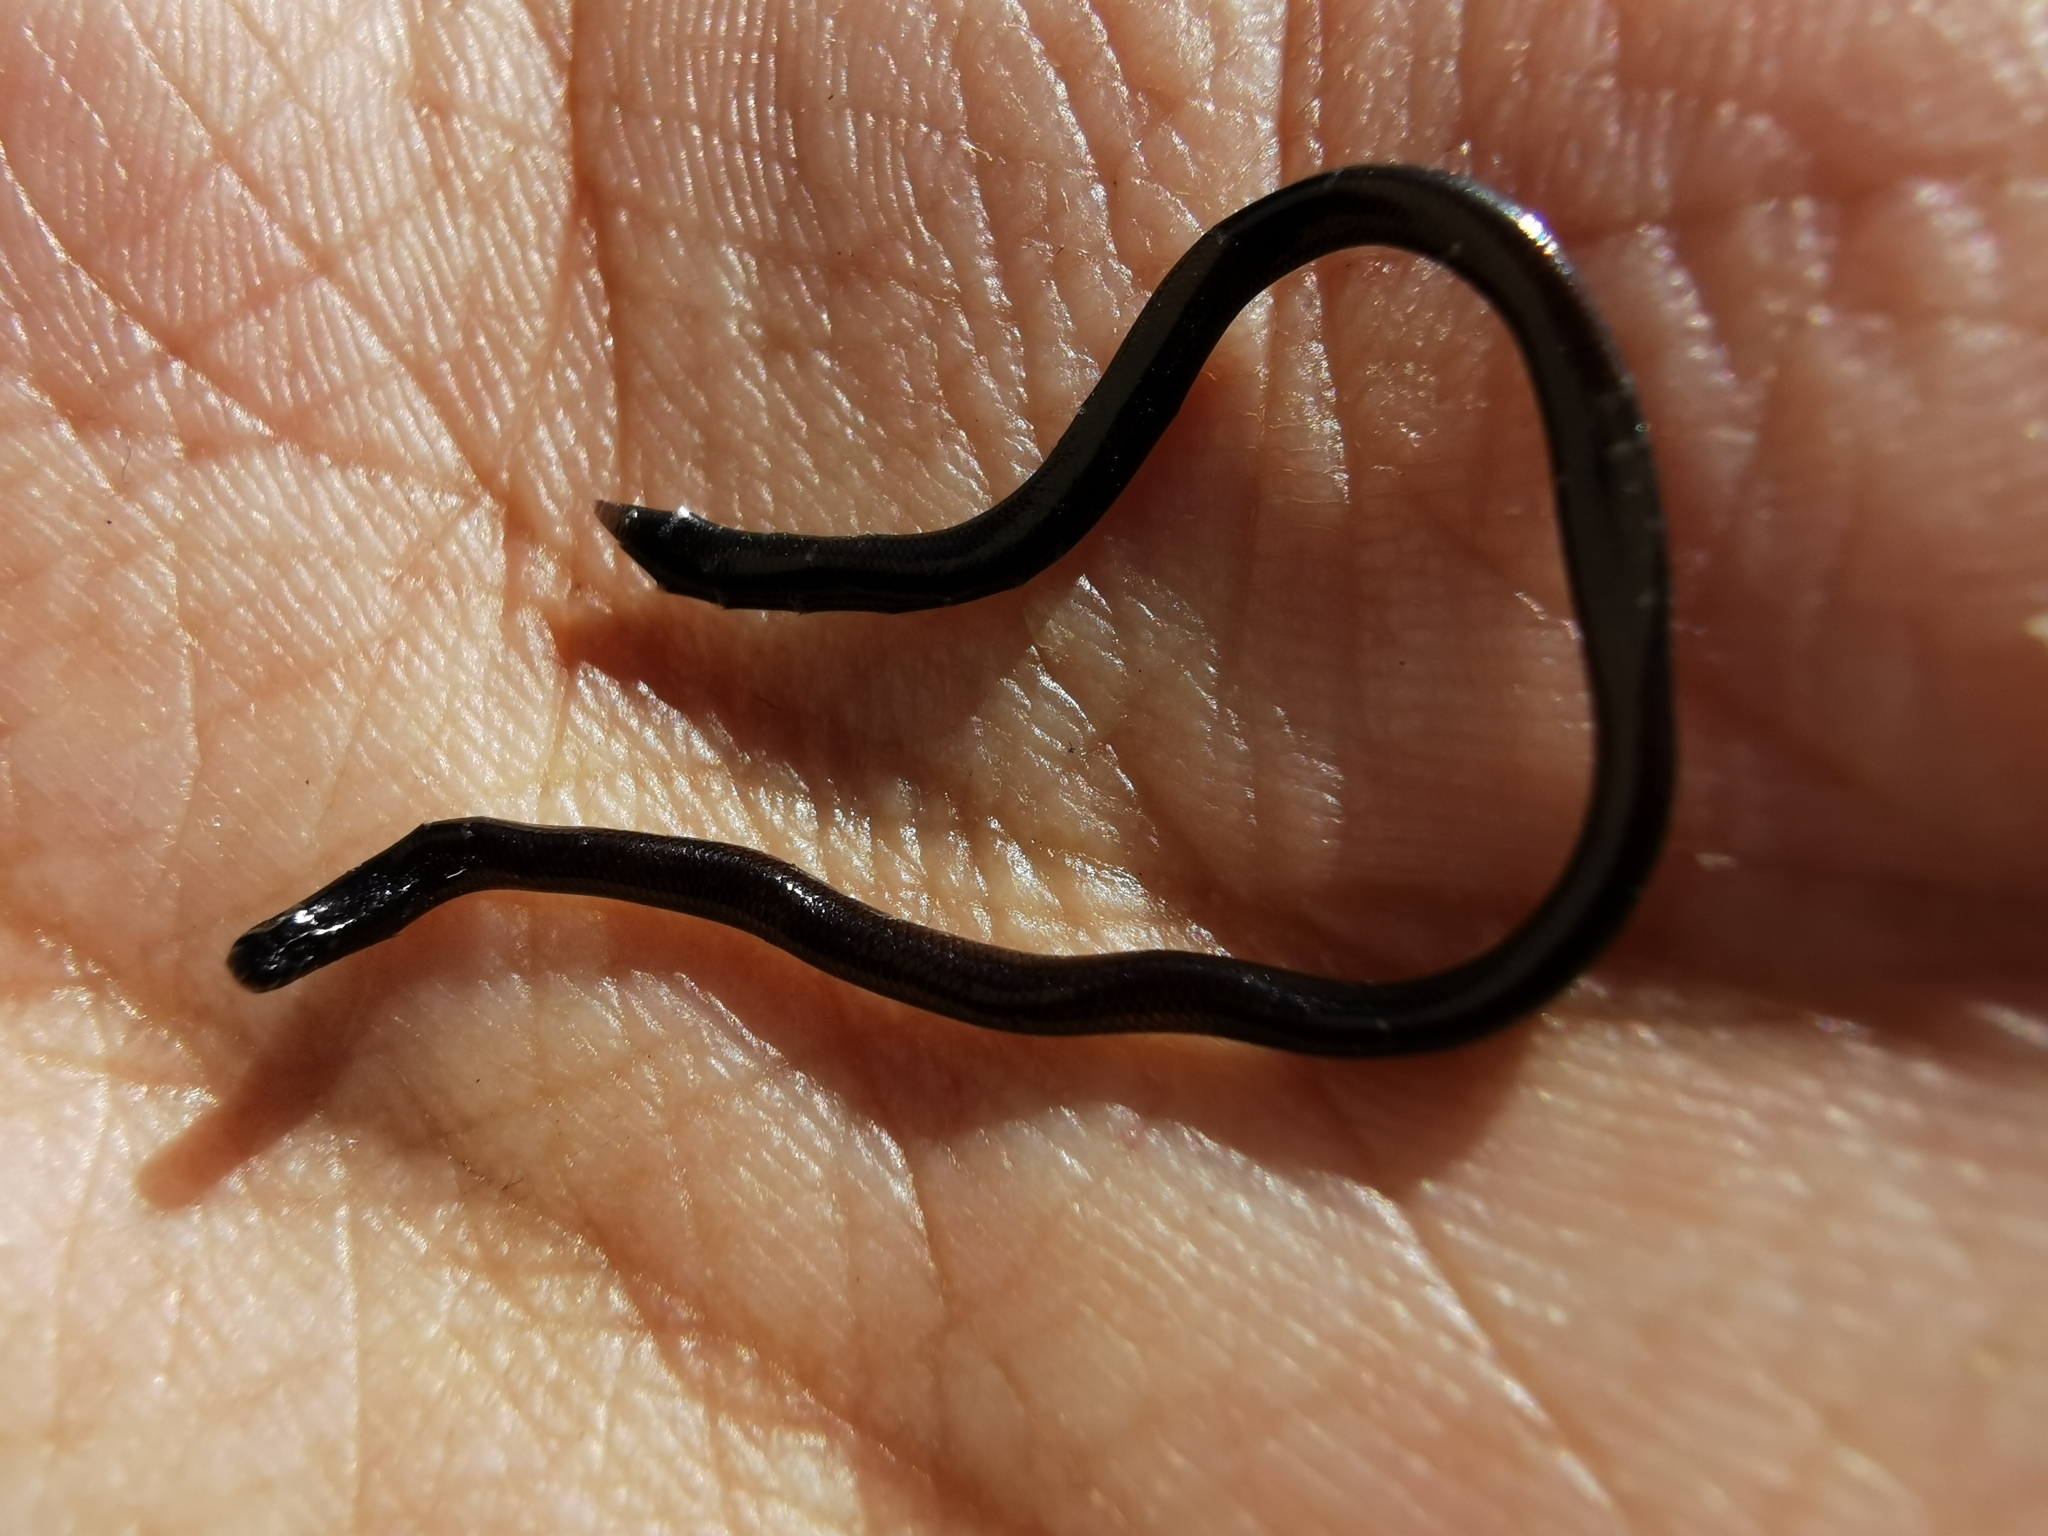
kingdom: Animalia
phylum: Chordata
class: Squamata
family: Typhlopidae
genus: Indotyphlops
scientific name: Indotyphlops braminus
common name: Brahminy blindsnake
